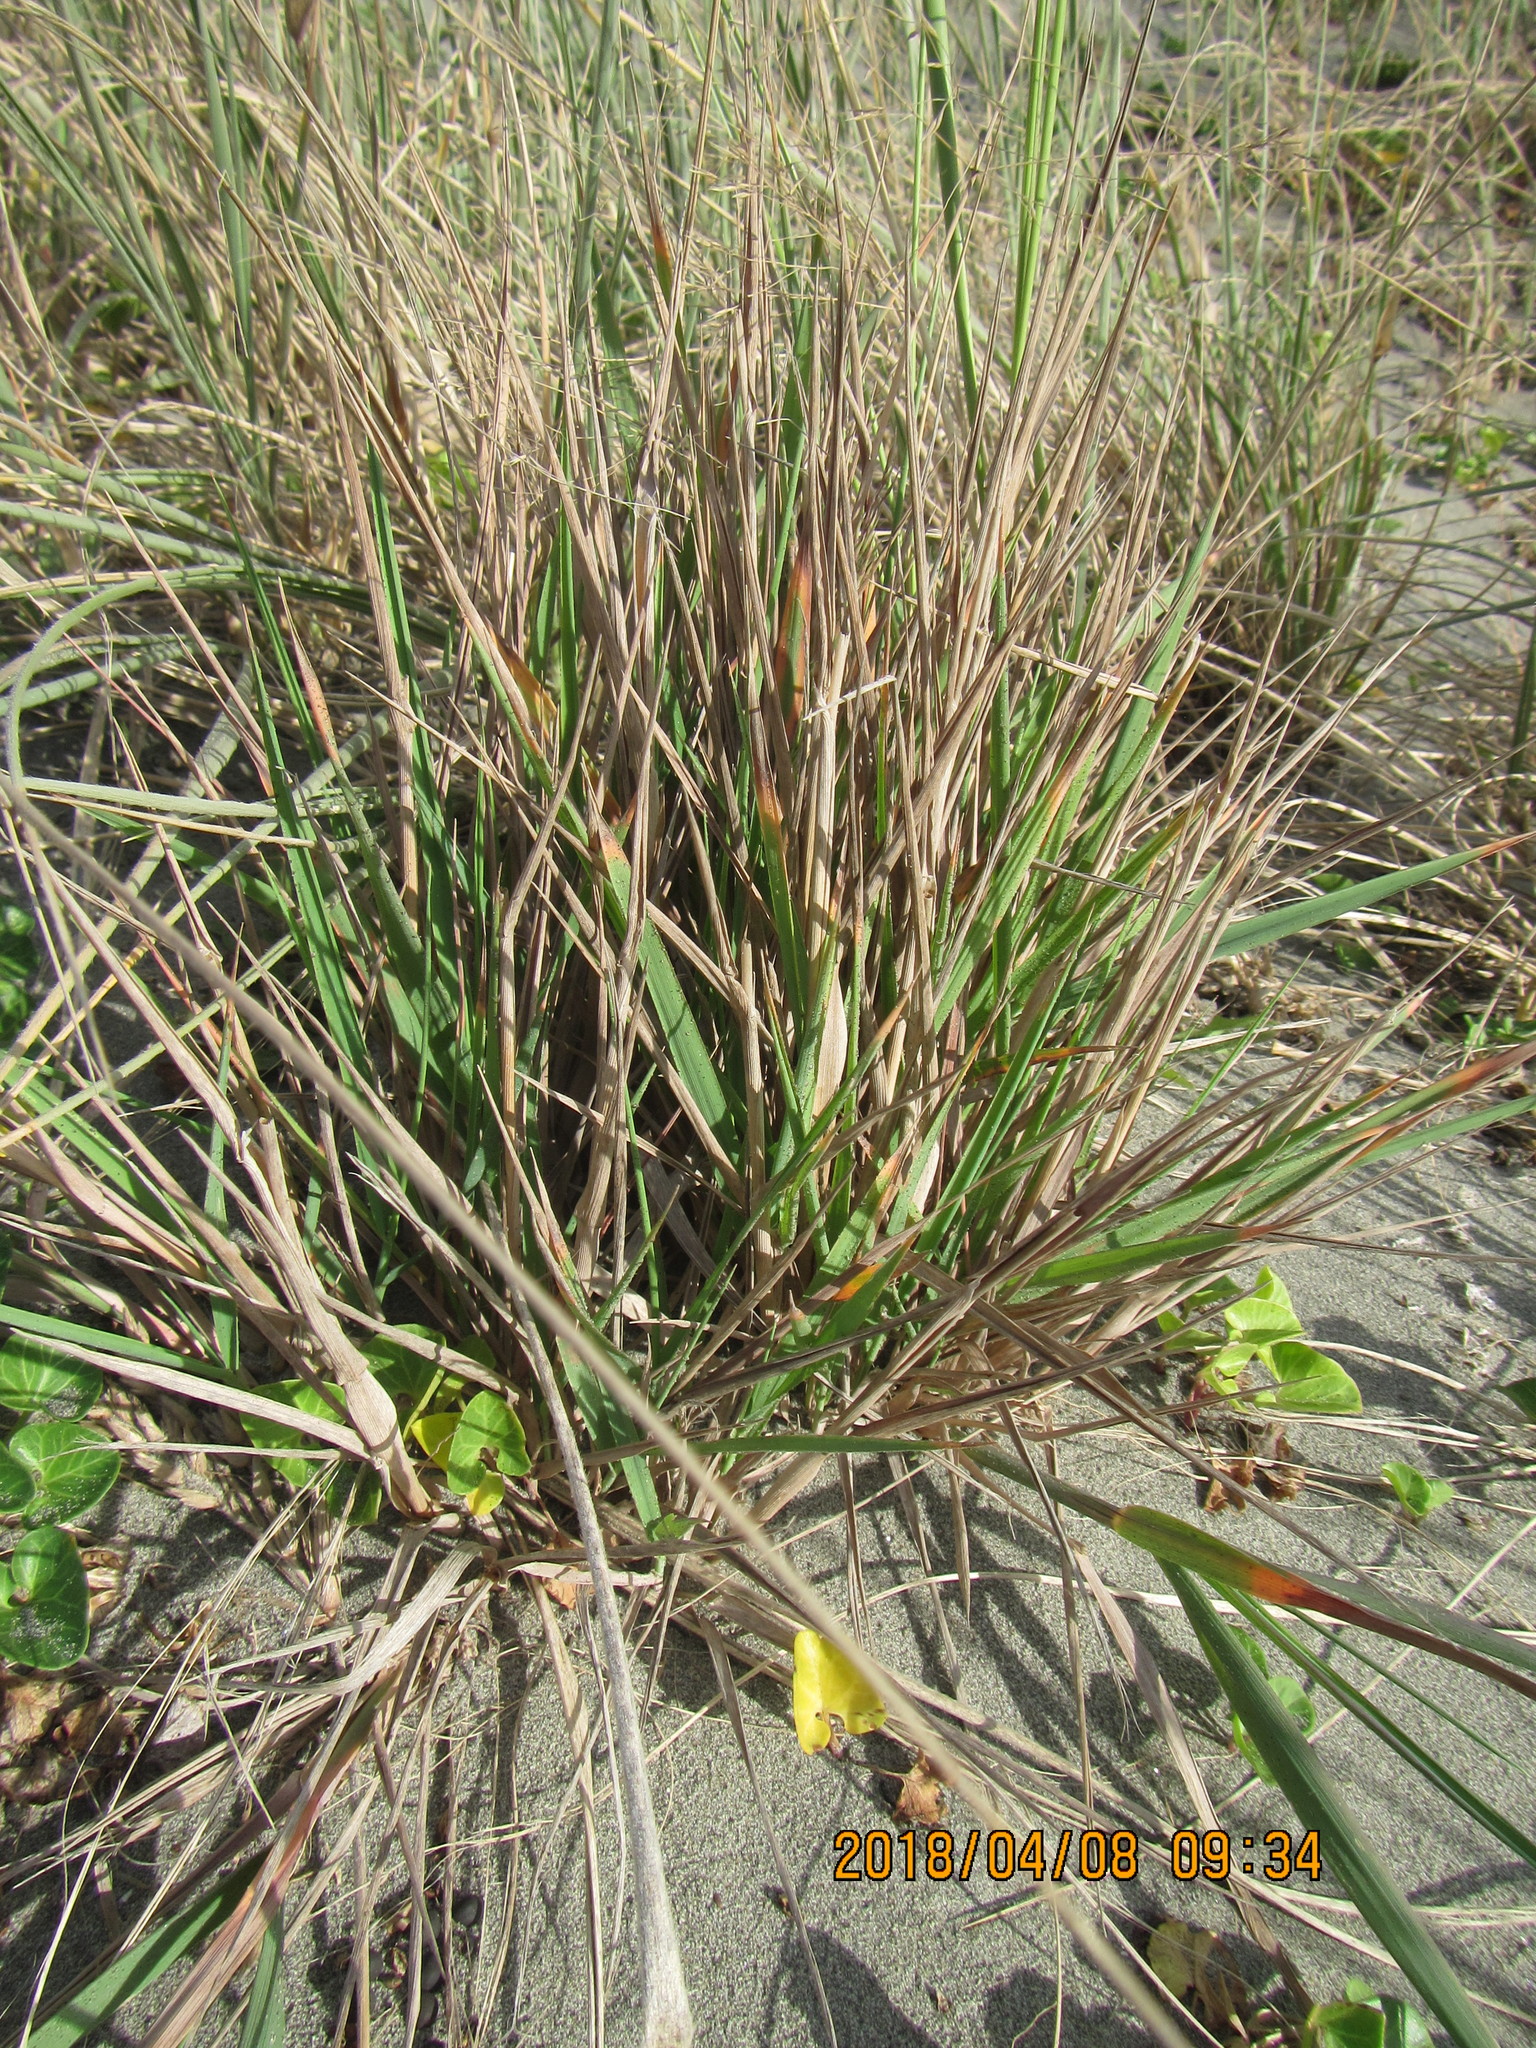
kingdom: Plantae
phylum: Tracheophyta
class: Liliopsida
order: Poales
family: Poaceae
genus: Lachnagrostis
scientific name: Lachnagrostis billardierei
